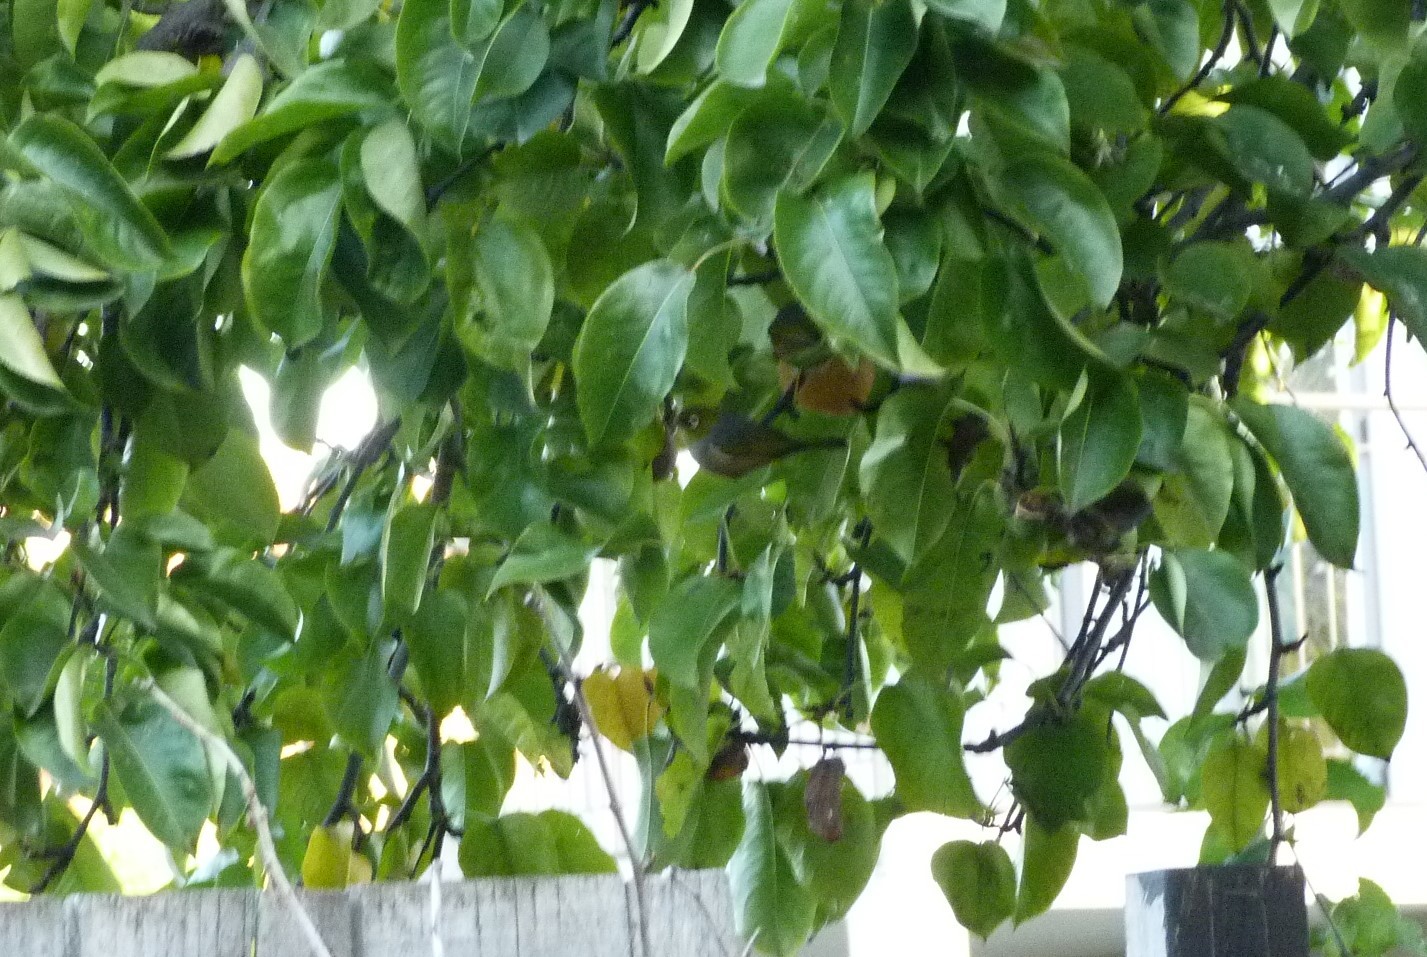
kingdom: Animalia
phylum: Chordata
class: Aves
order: Passeriformes
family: Zosteropidae
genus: Zosterops
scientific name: Zosterops lateralis
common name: Silvereye
